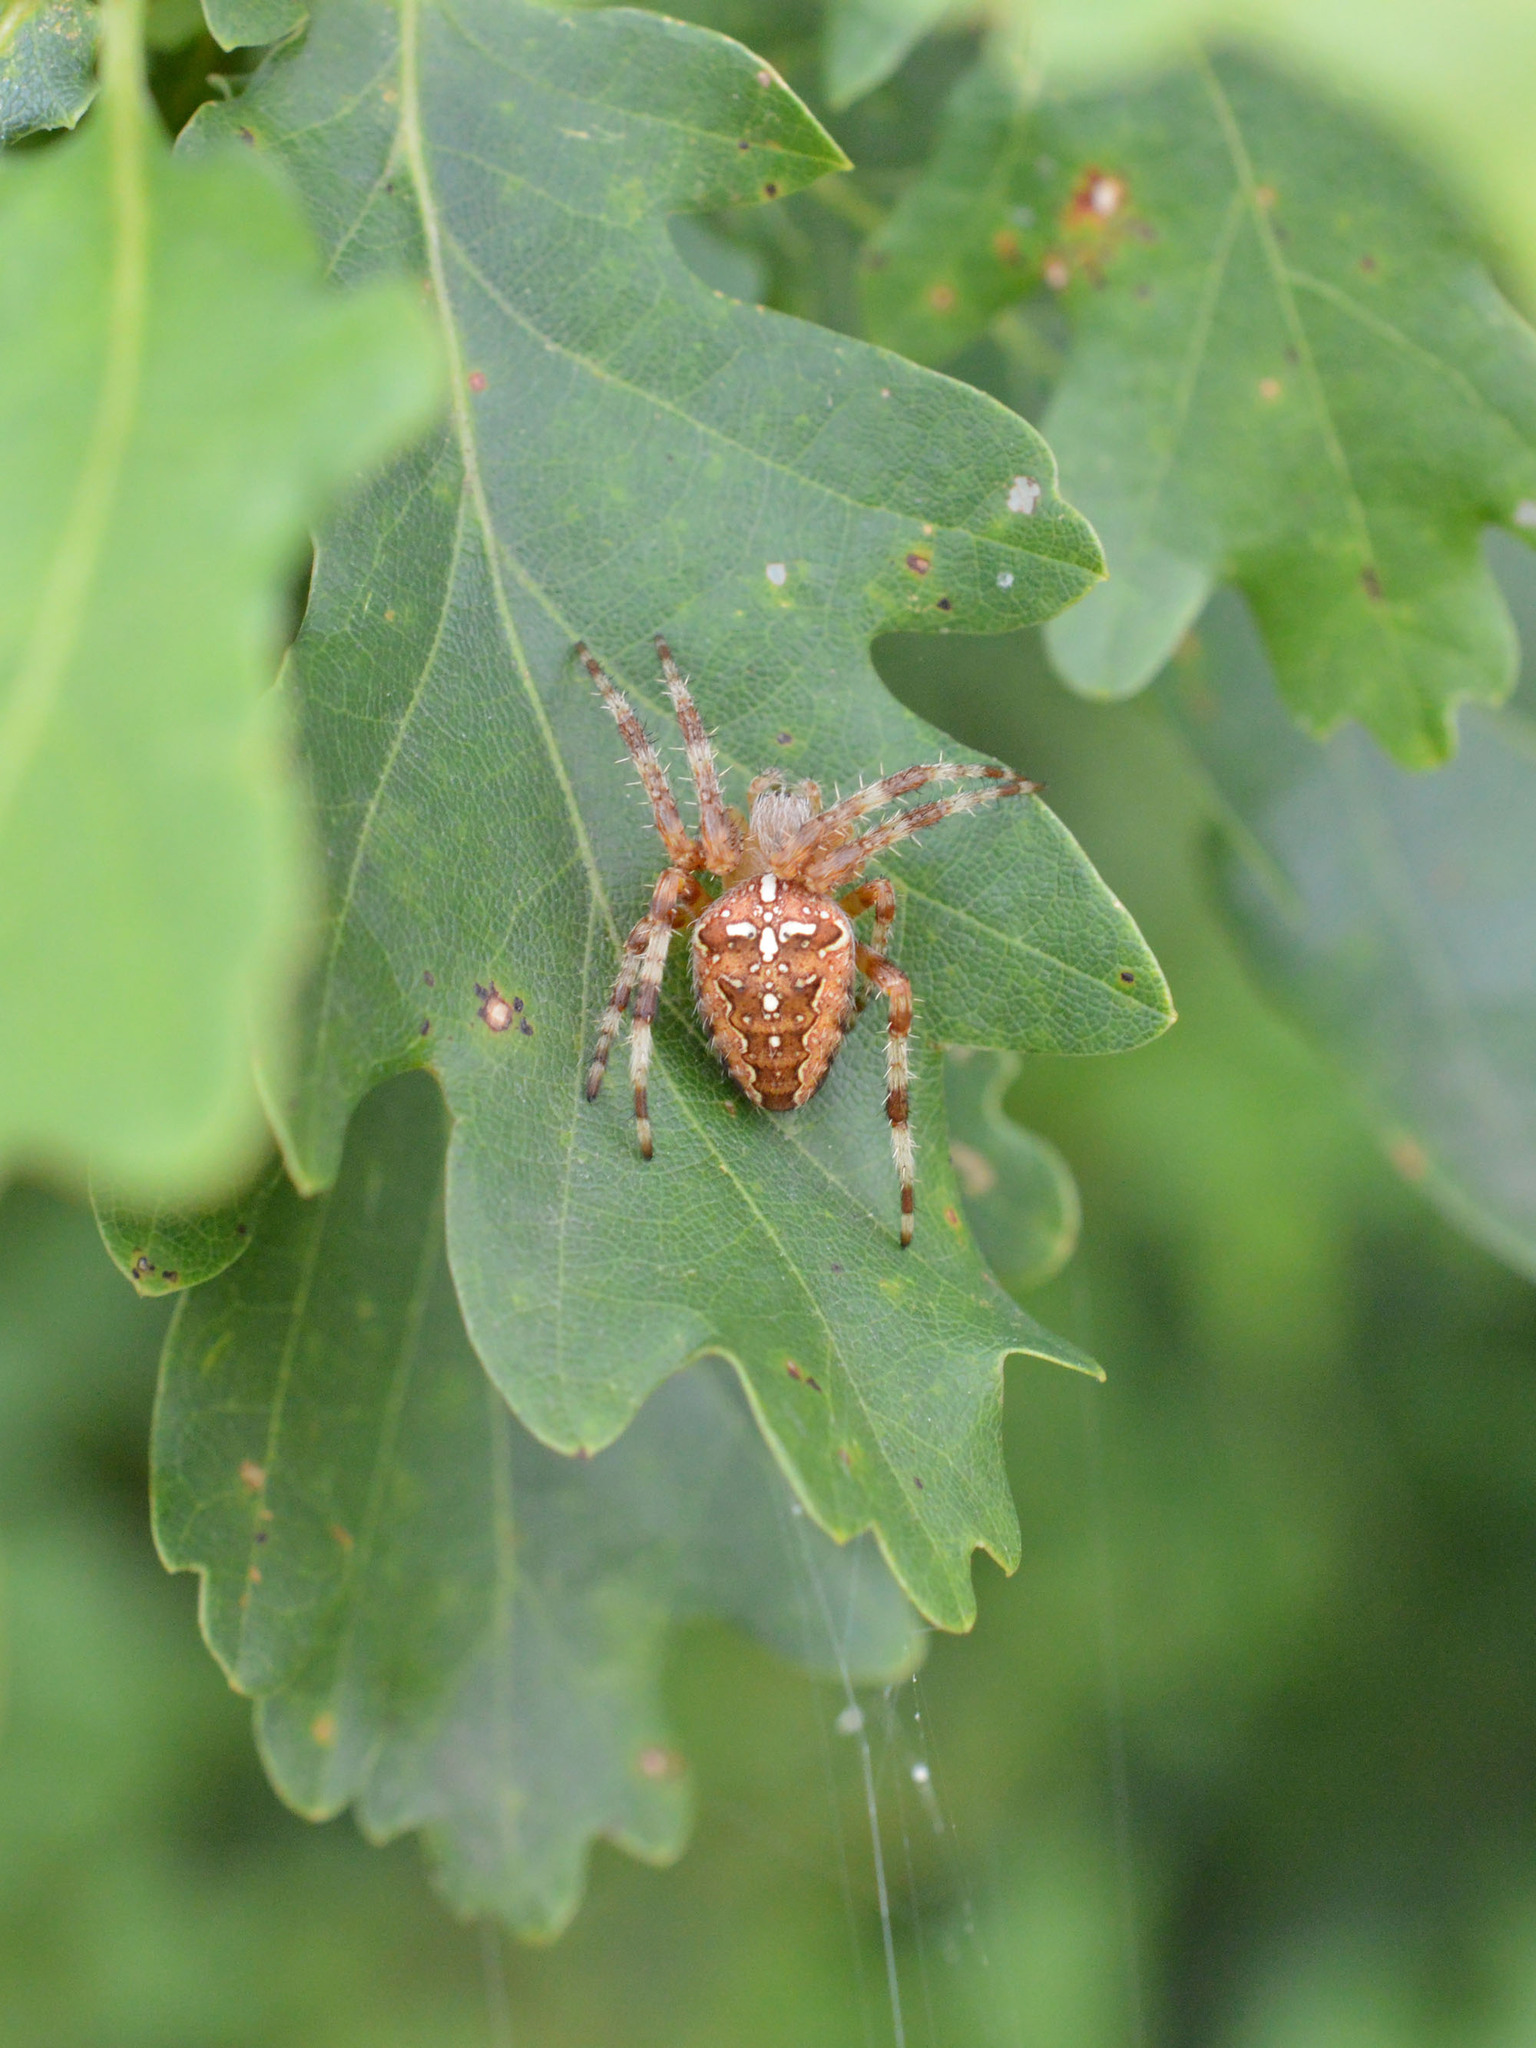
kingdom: Animalia
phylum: Arthropoda
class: Arachnida
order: Araneae
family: Araneidae
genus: Araneus
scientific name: Araneus diadematus
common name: Cross orbweaver
